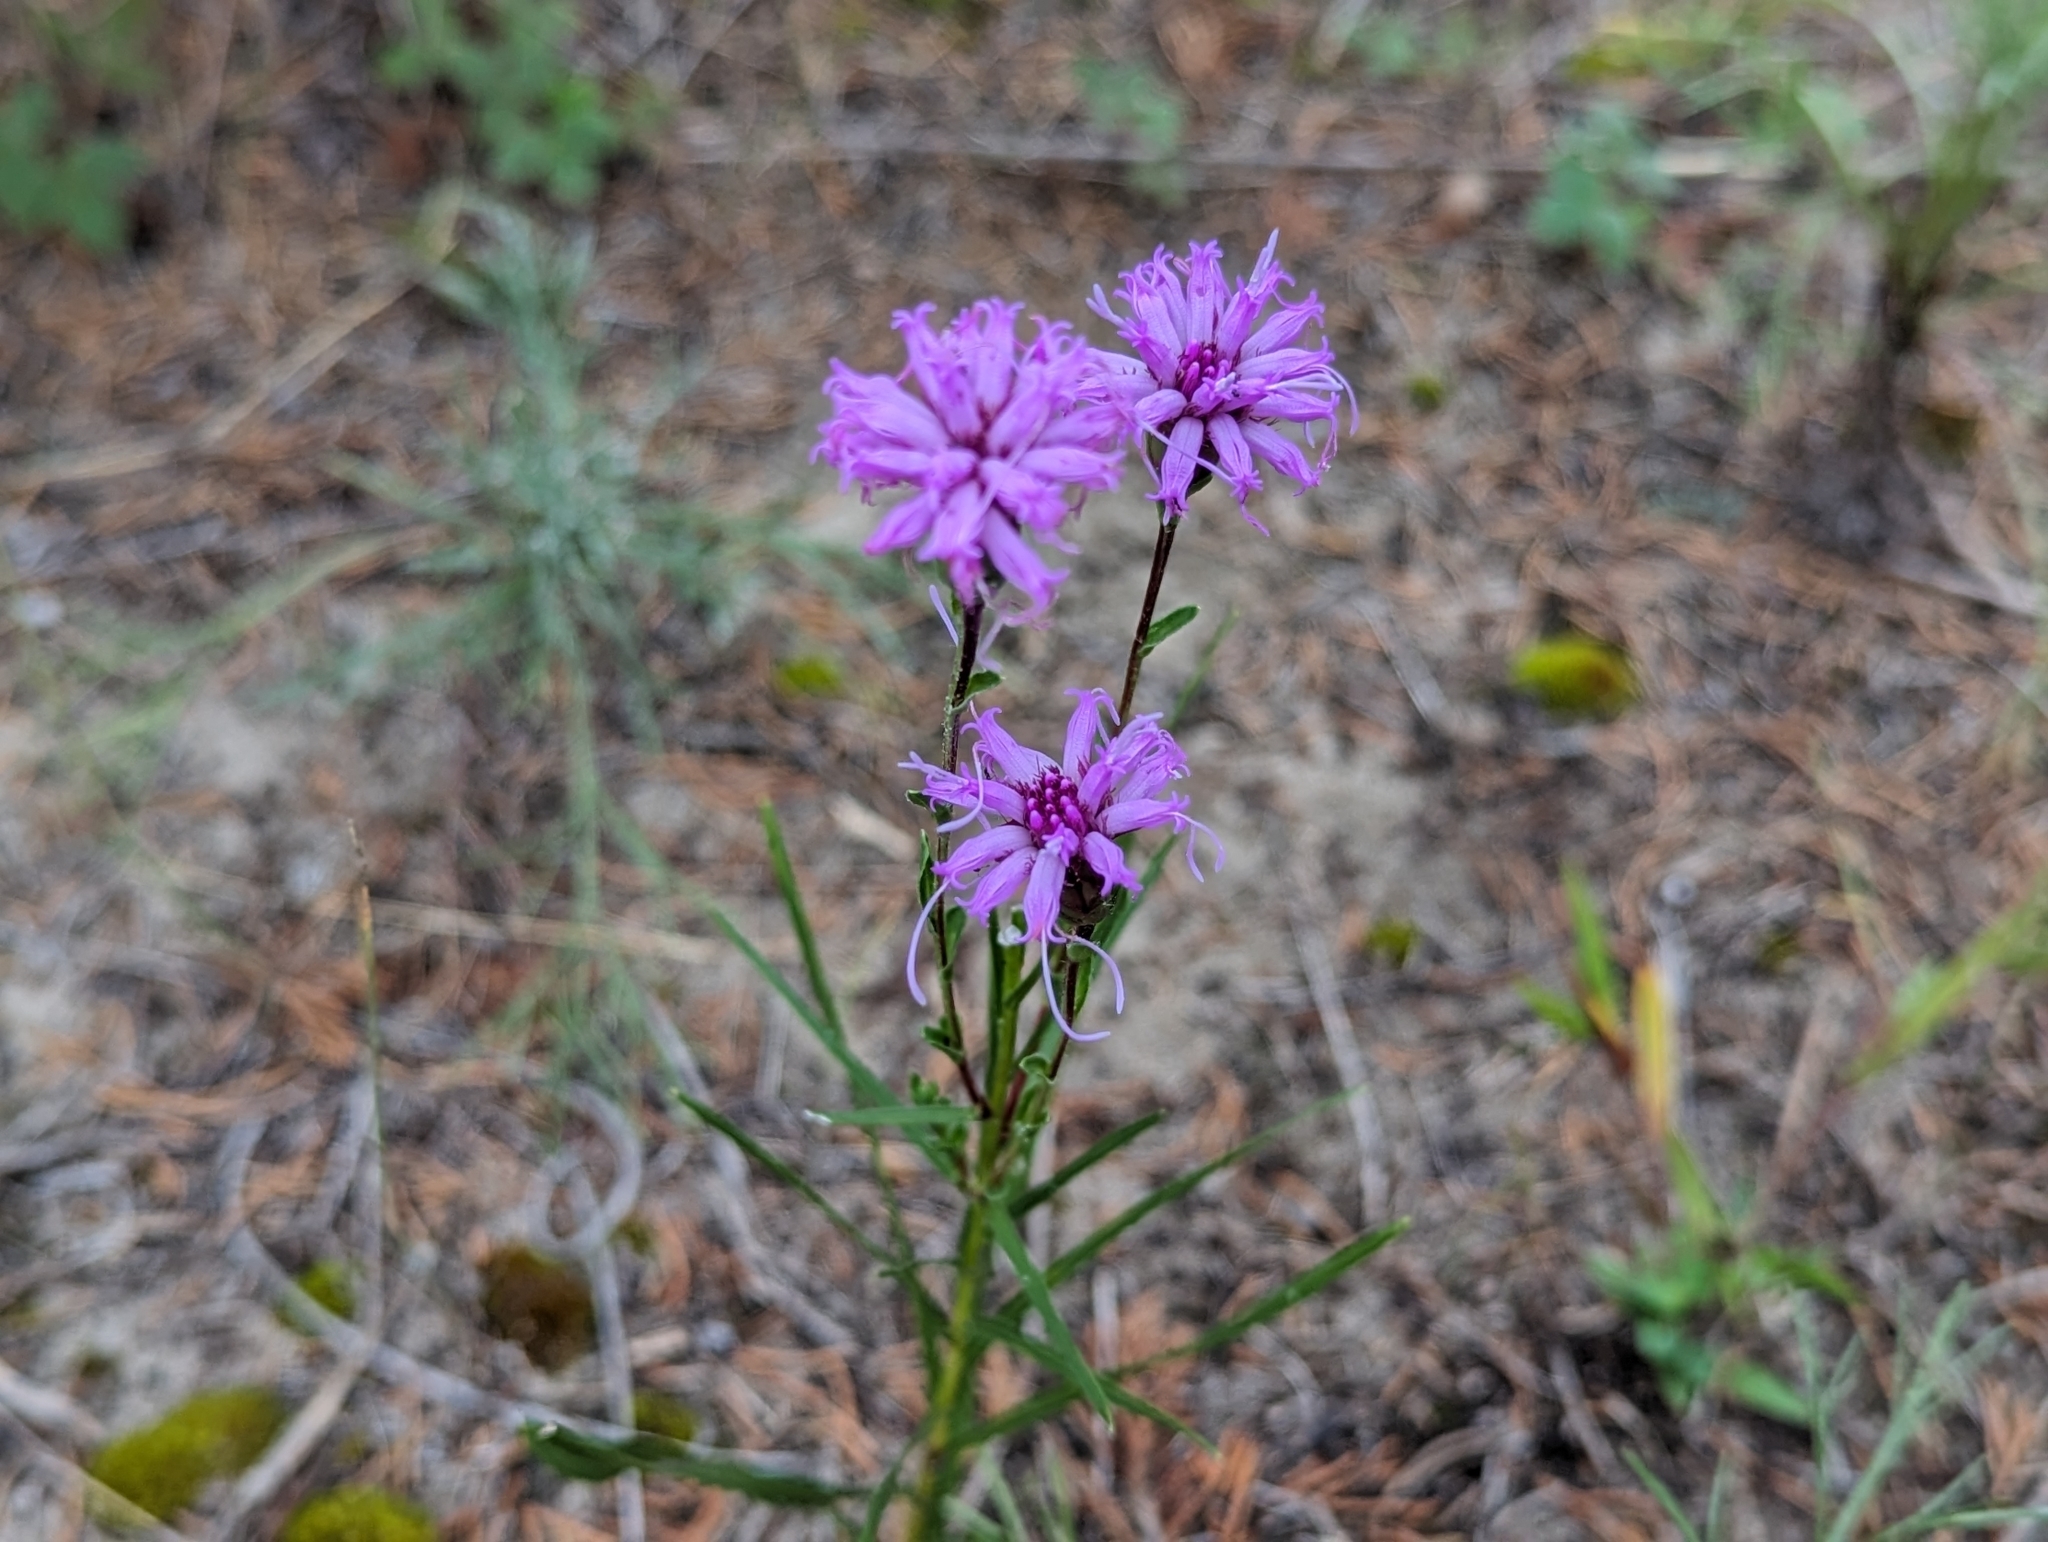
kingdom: Plantae
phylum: Tracheophyta
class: Magnoliopsida
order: Asterales
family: Asteraceae
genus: Liatris
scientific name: Liatris cylindracea
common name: Few-head blazingstar
